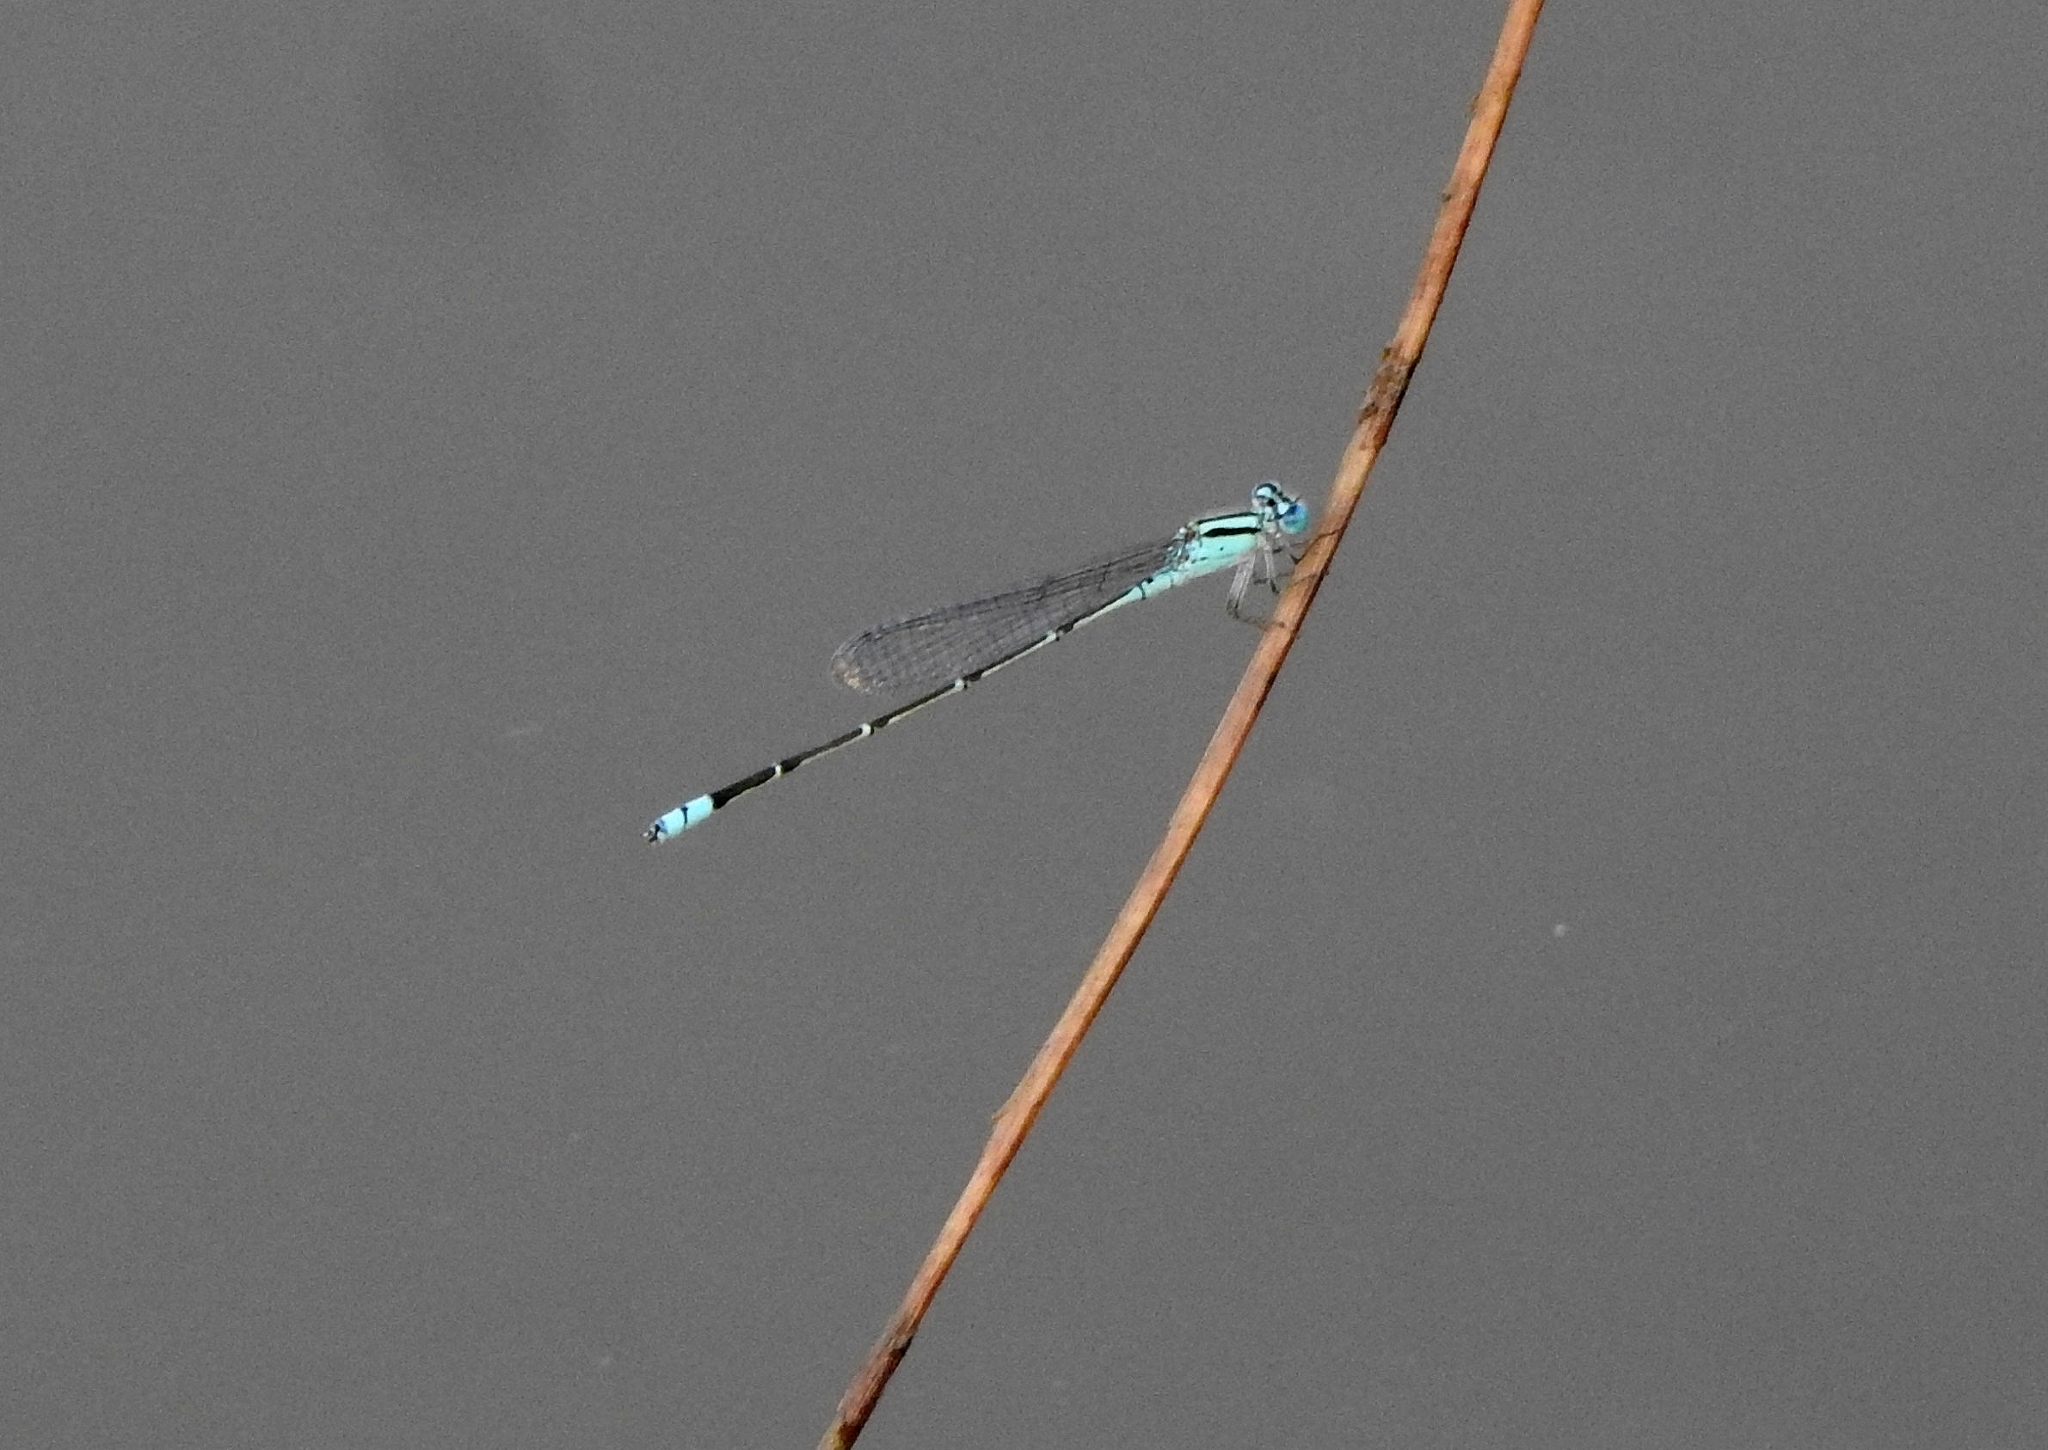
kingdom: Animalia
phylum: Arthropoda
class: Insecta
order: Odonata
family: Coenagrionidae
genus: Pseudagrion
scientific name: Pseudagrion microcephalum
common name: Blue riverdamsel
